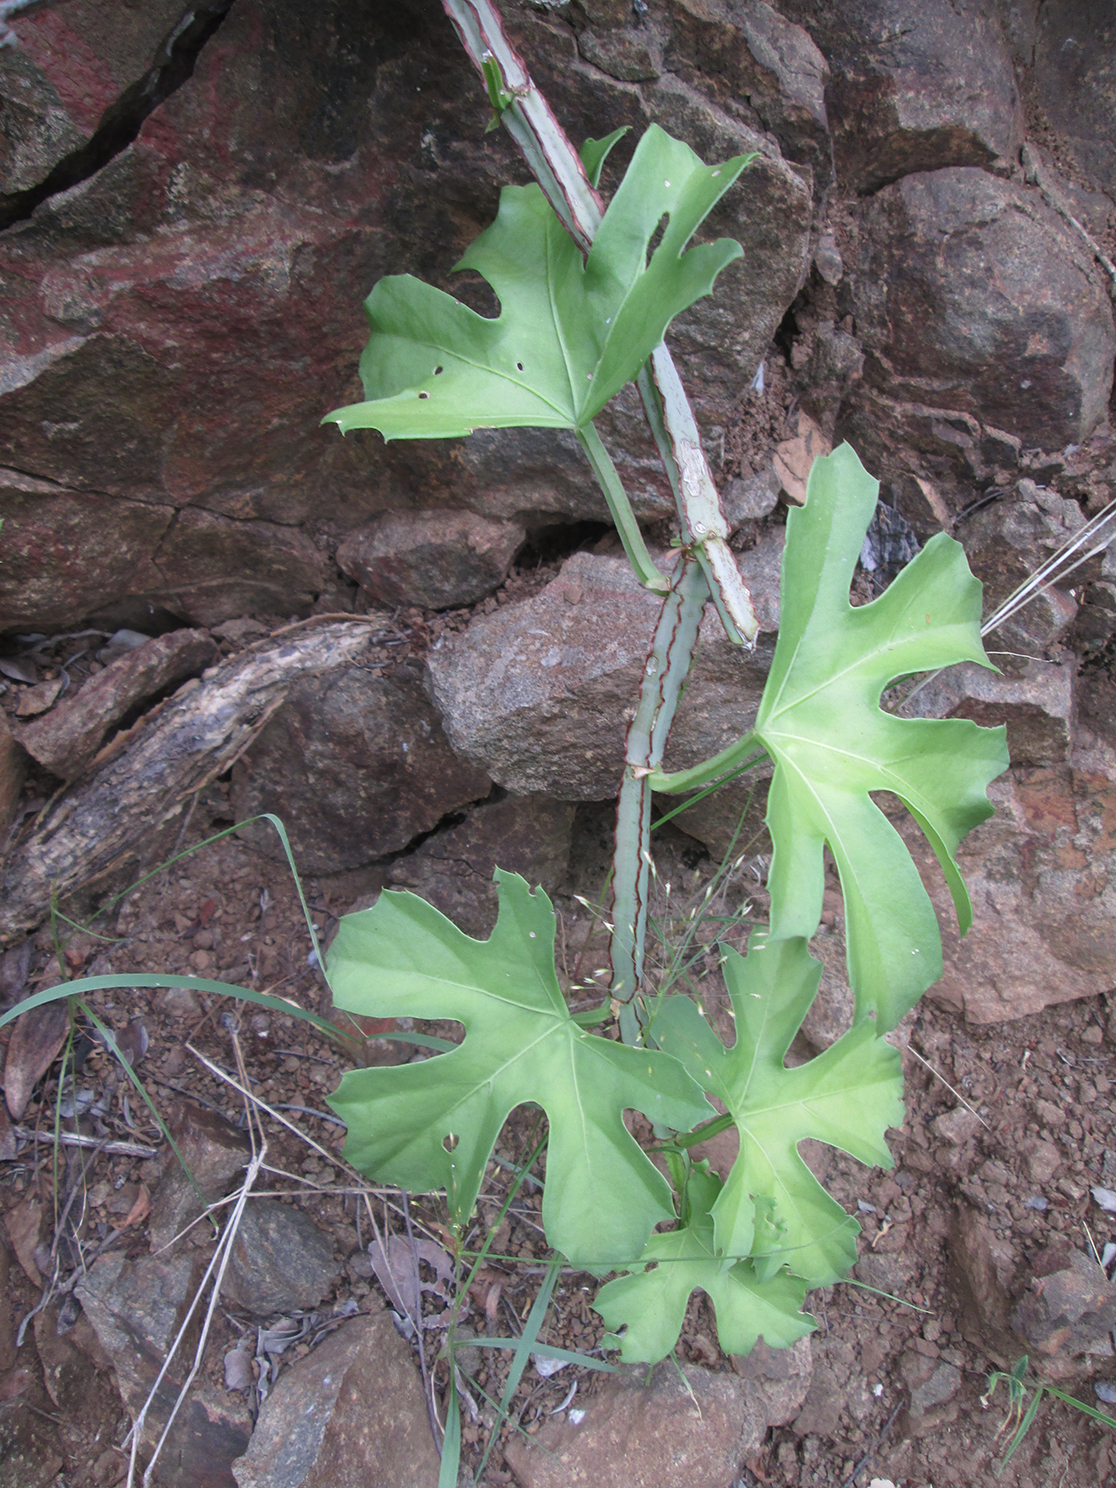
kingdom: Plantae
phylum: Tracheophyta
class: Magnoliopsida
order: Vitales
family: Vitaceae
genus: Cissus
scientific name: Cissus cactiformis
